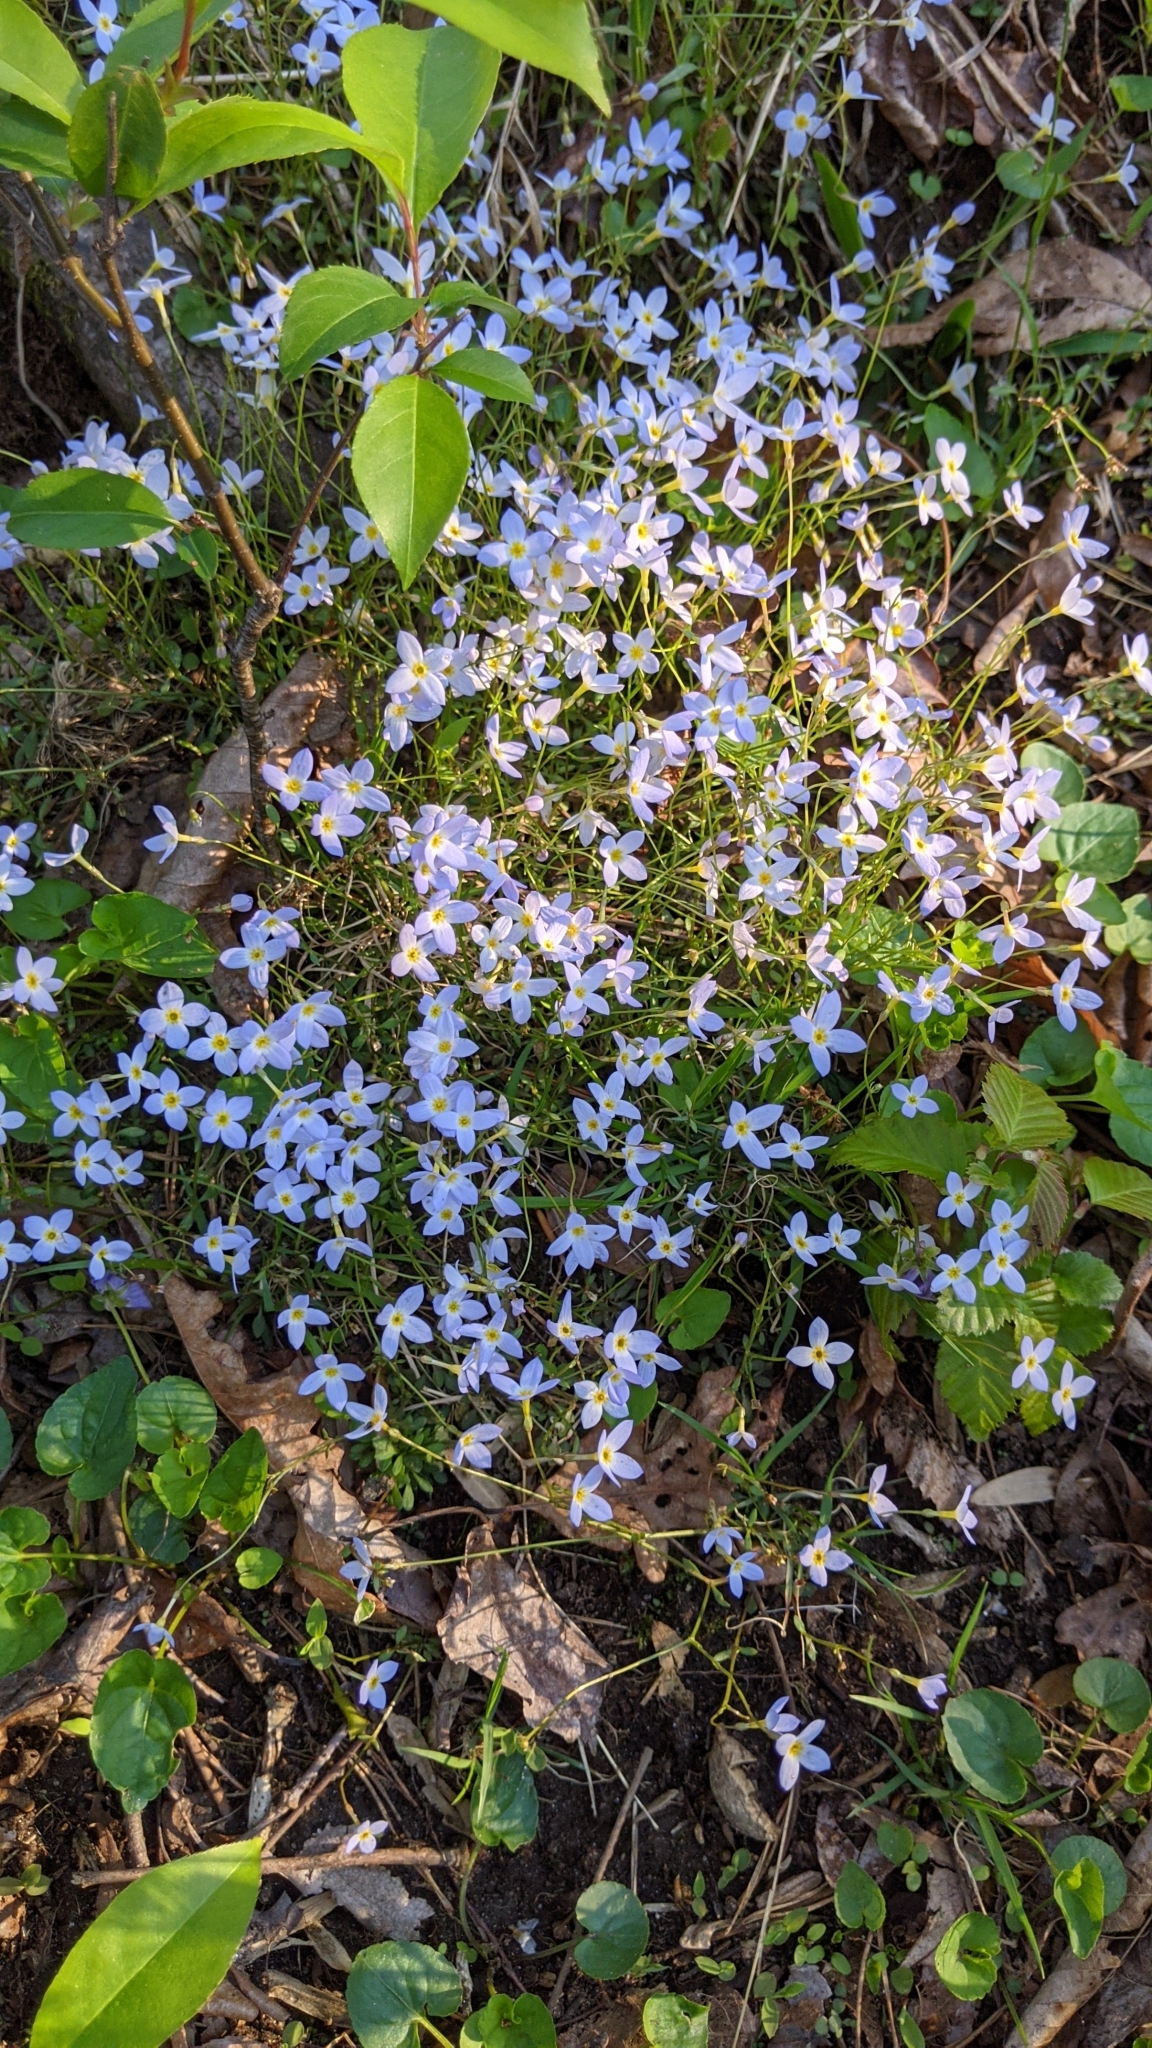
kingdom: Plantae
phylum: Tracheophyta
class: Magnoliopsida
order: Gentianales
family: Rubiaceae
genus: Houstonia
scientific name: Houstonia caerulea
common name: Bluets
